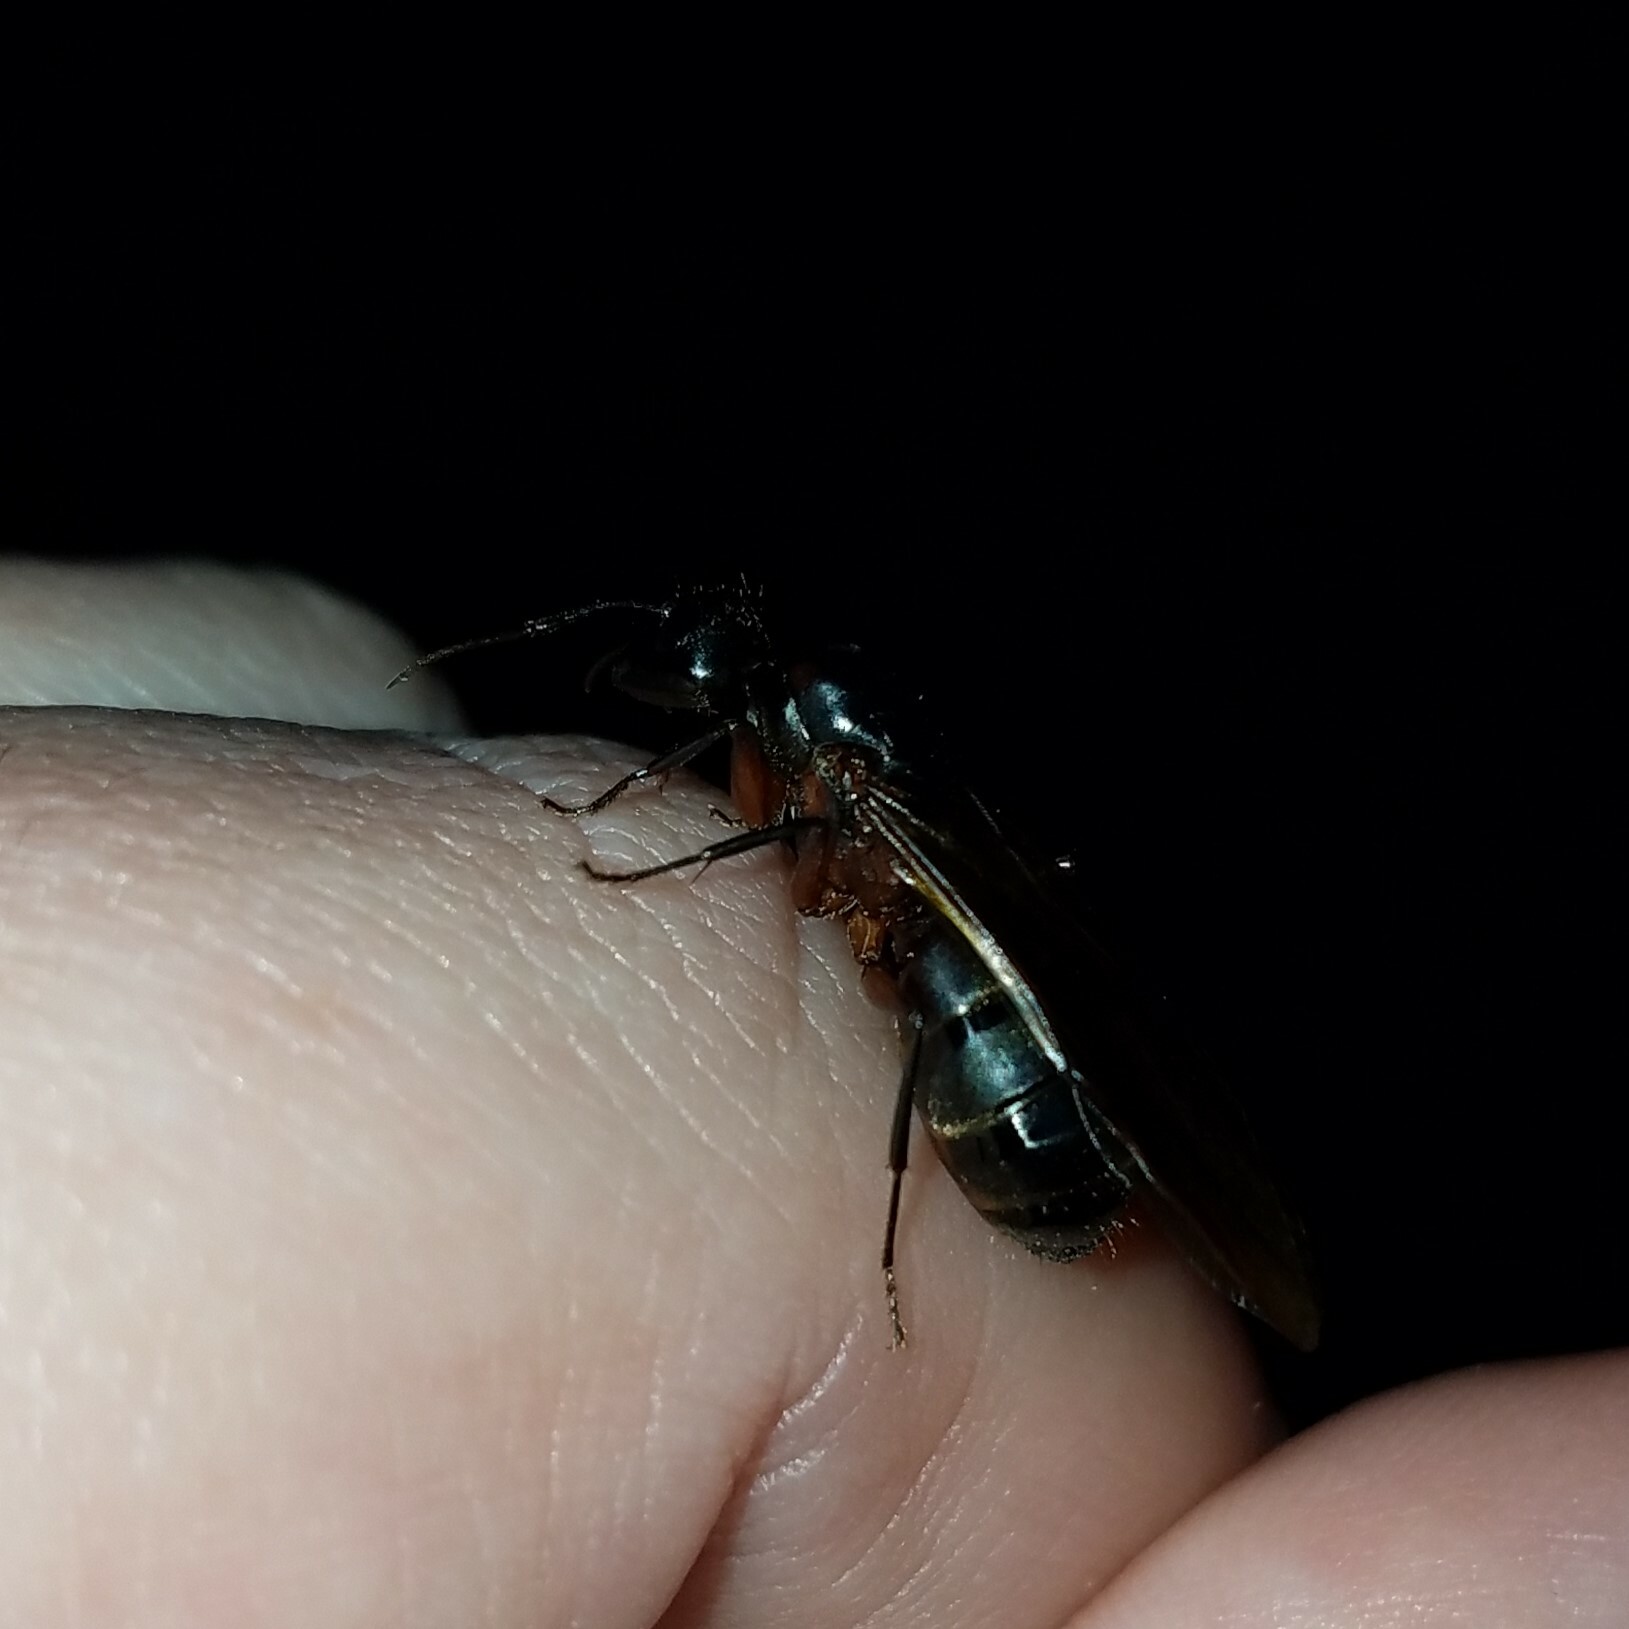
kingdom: Animalia
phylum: Arthropoda
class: Insecta
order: Hymenoptera
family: Formicidae
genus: Camponotus
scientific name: Camponotus chromaiodes
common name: Red carpenter ant
